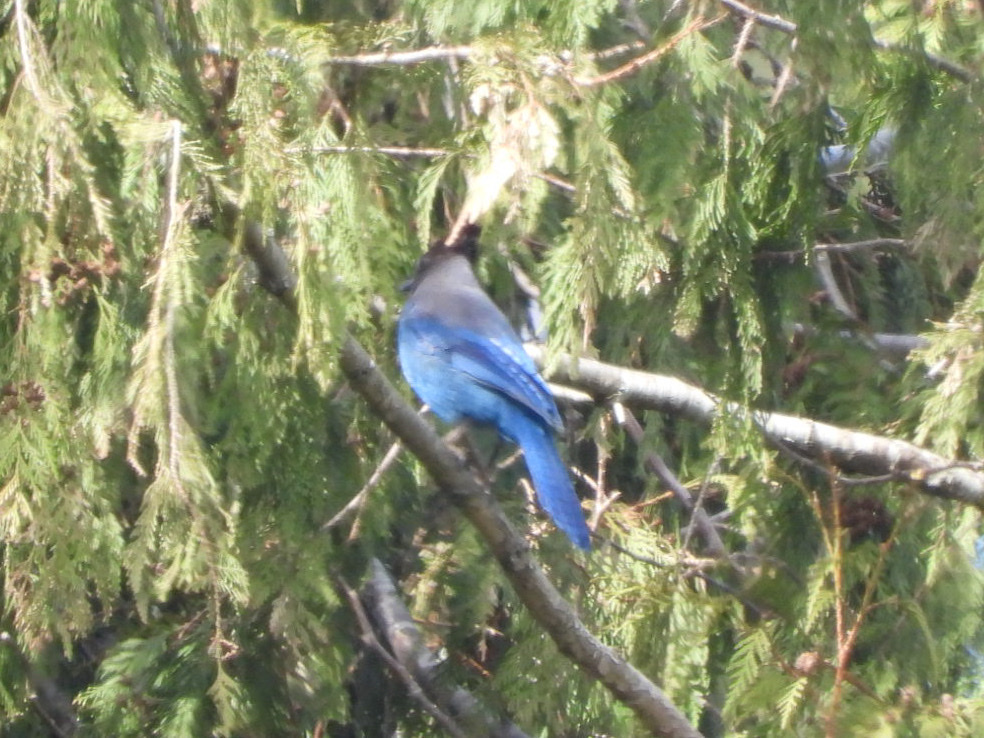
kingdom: Animalia
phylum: Chordata
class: Aves
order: Passeriformes
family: Corvidae
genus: Cyanocitta
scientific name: Cyanocitta stelleri
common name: Steller's jay
